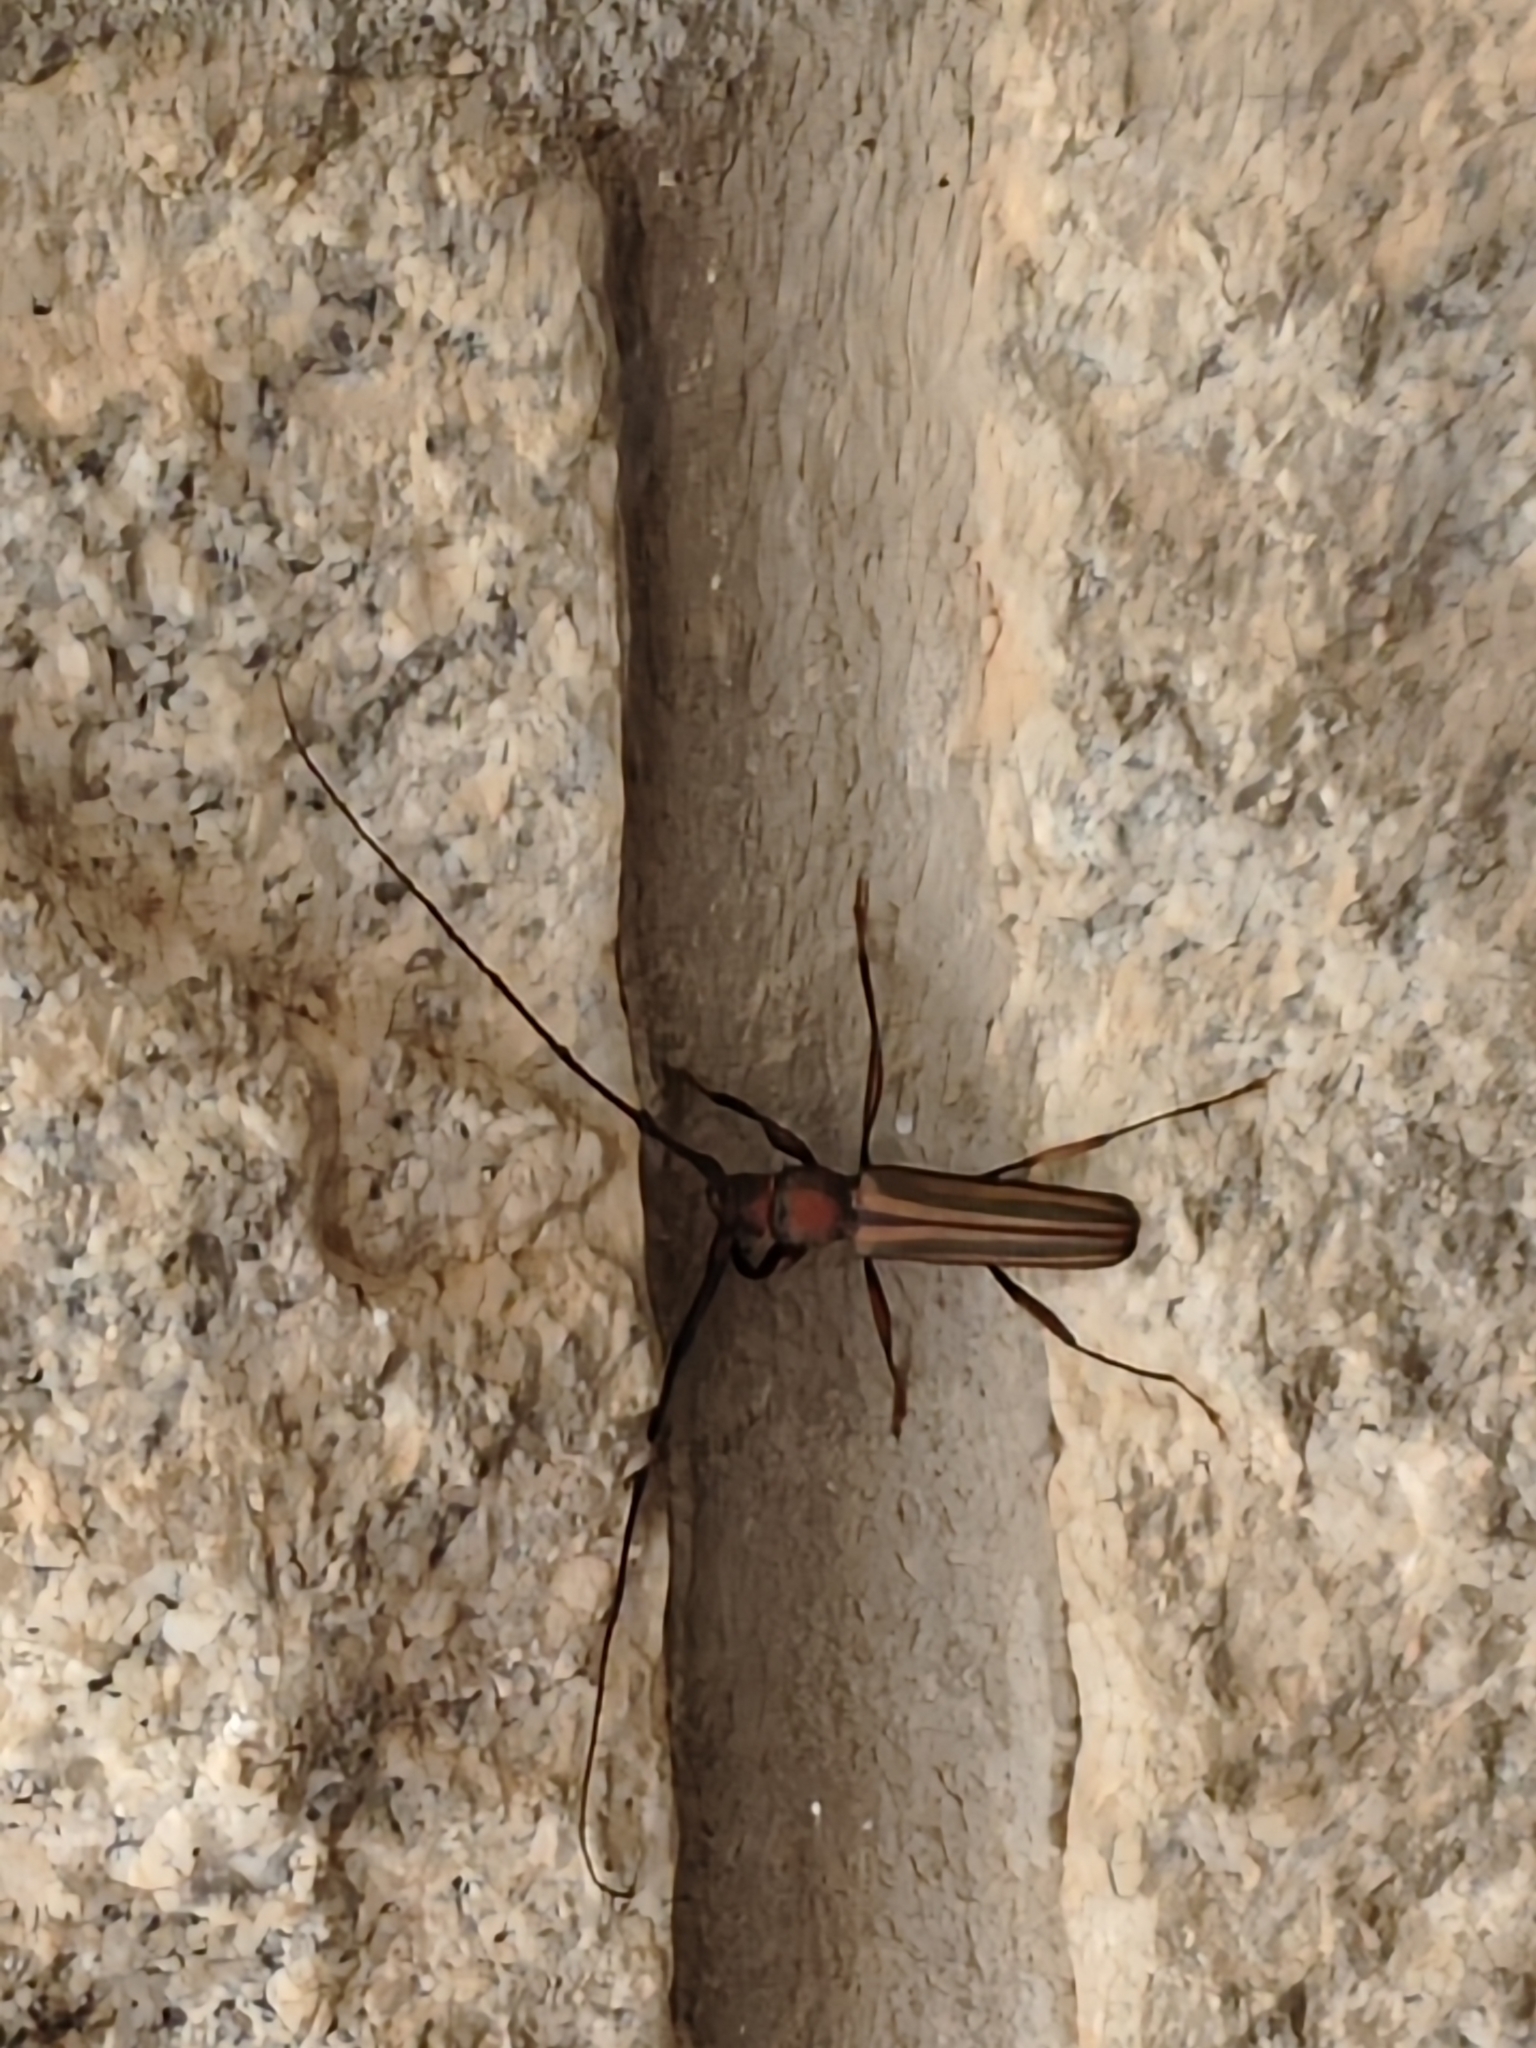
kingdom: Animalia
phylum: Arthropoda
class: Insecta
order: Coleoptera
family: Cerambycidae
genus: Xystrocera
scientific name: Xystrocera globosa
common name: Peach-tree longhorn
